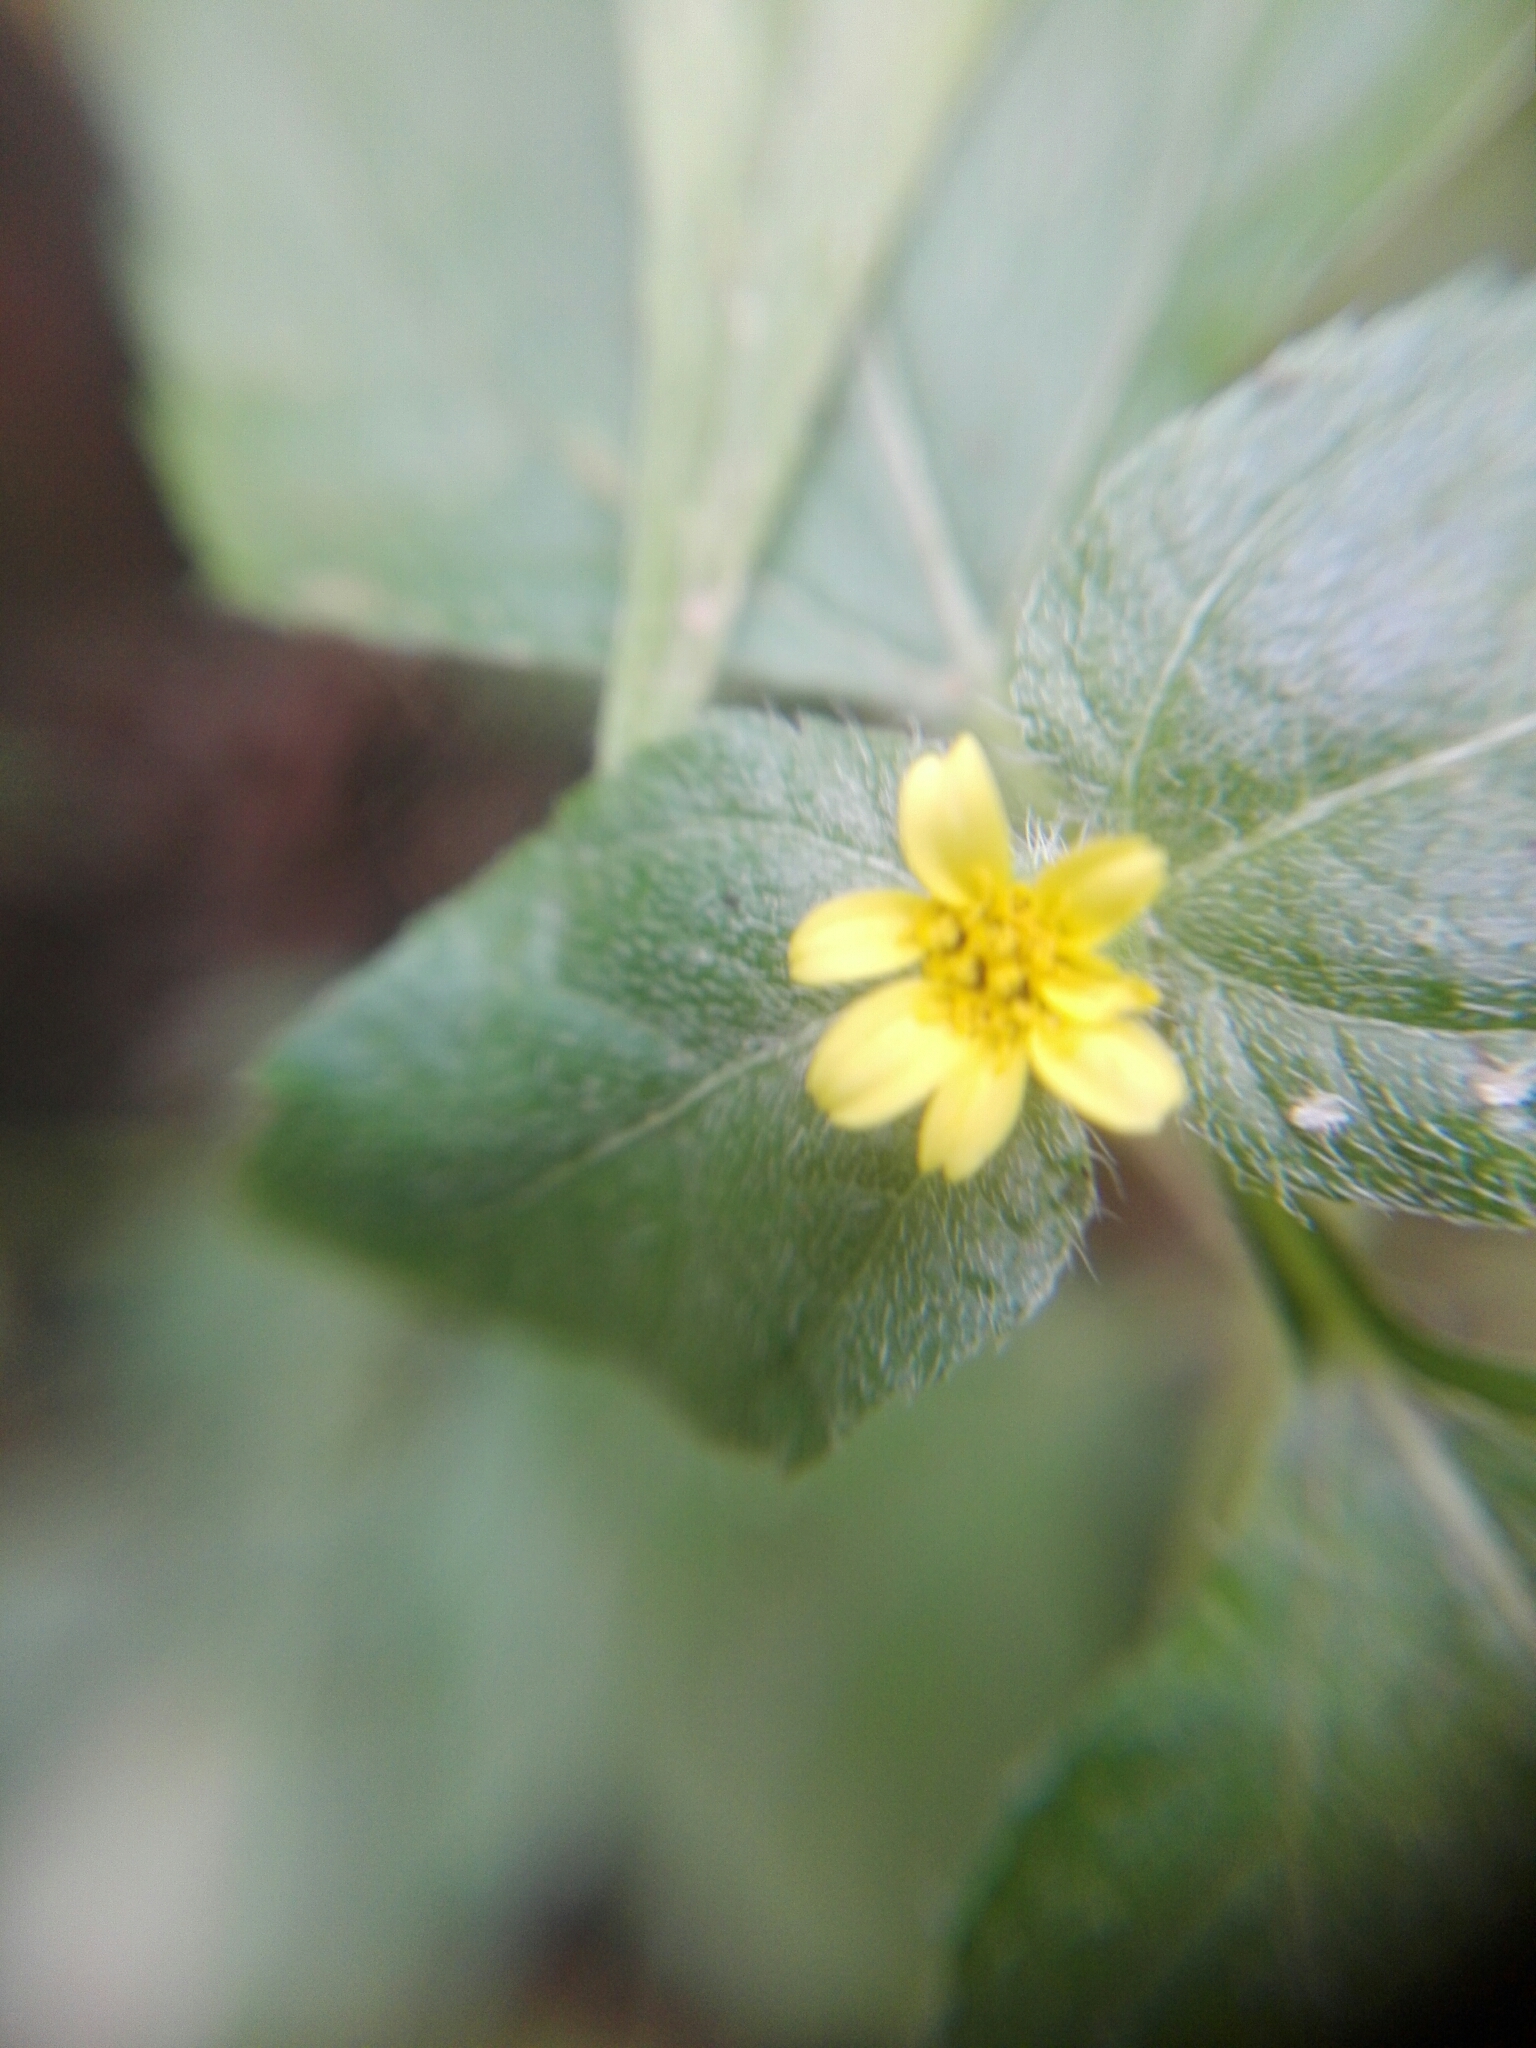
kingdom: Plantae
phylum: Tracheophyta
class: Magnoliopsida
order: Asterales
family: Asteraceae
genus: Calyptocarpus
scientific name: Calyptocarpus vialis
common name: Straggler daisy
